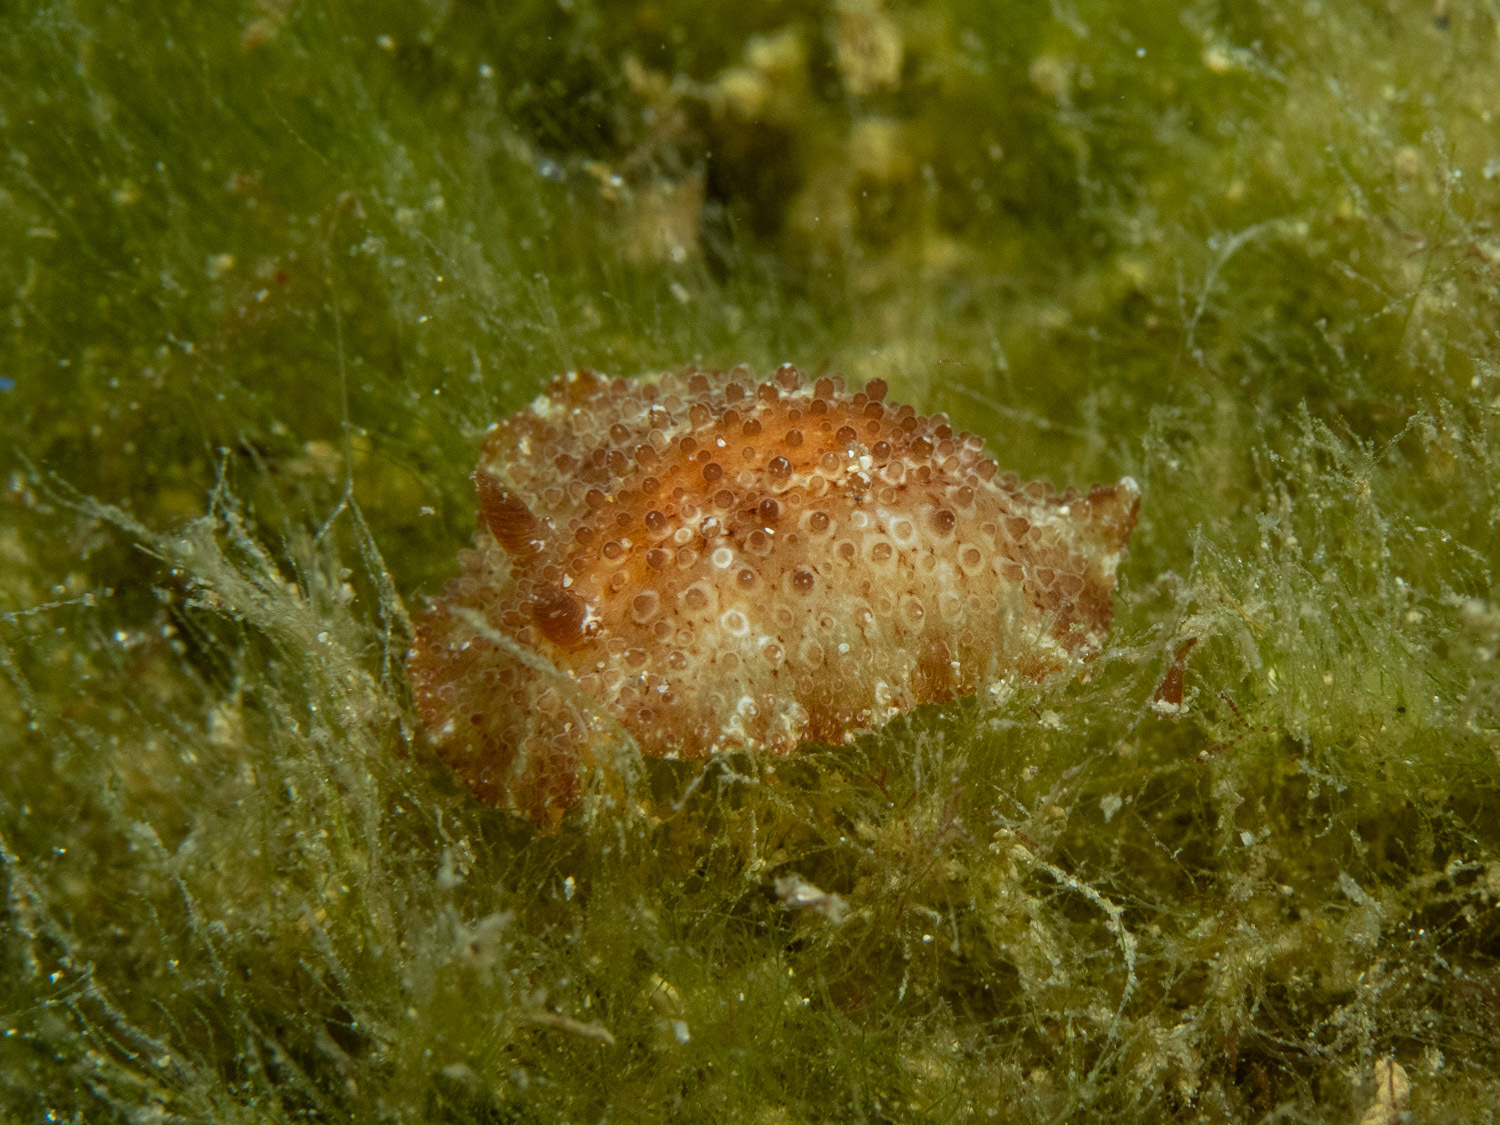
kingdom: Animalia
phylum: Mollusca
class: Gastropoda
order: Nudibranchia
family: Discodorididae
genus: Carminodoris
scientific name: Carminodoris nodulosa
